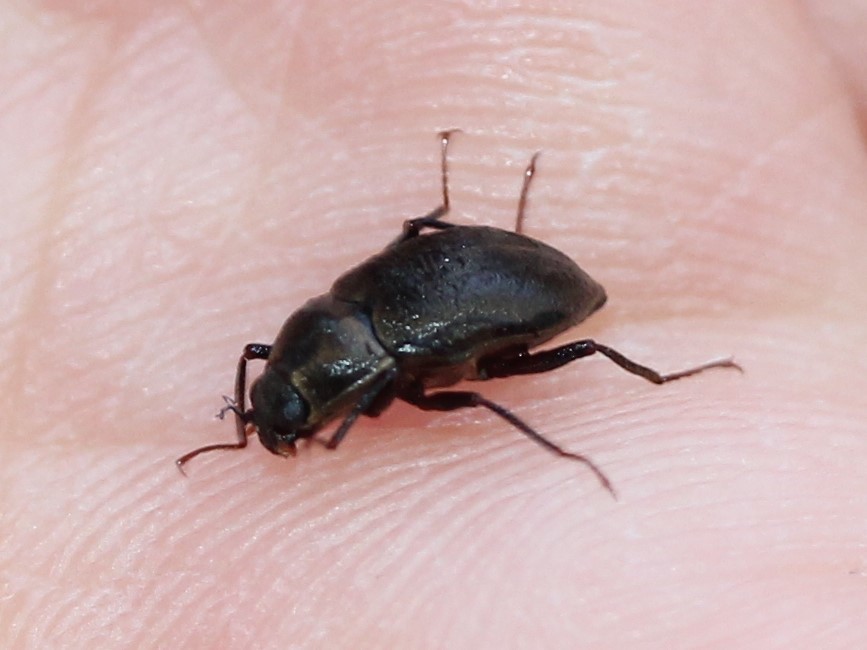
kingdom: Animalia
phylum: Arthropoda
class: Insecta
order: Coleoptera
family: Dryopidae
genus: Helichus
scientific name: Helichus
